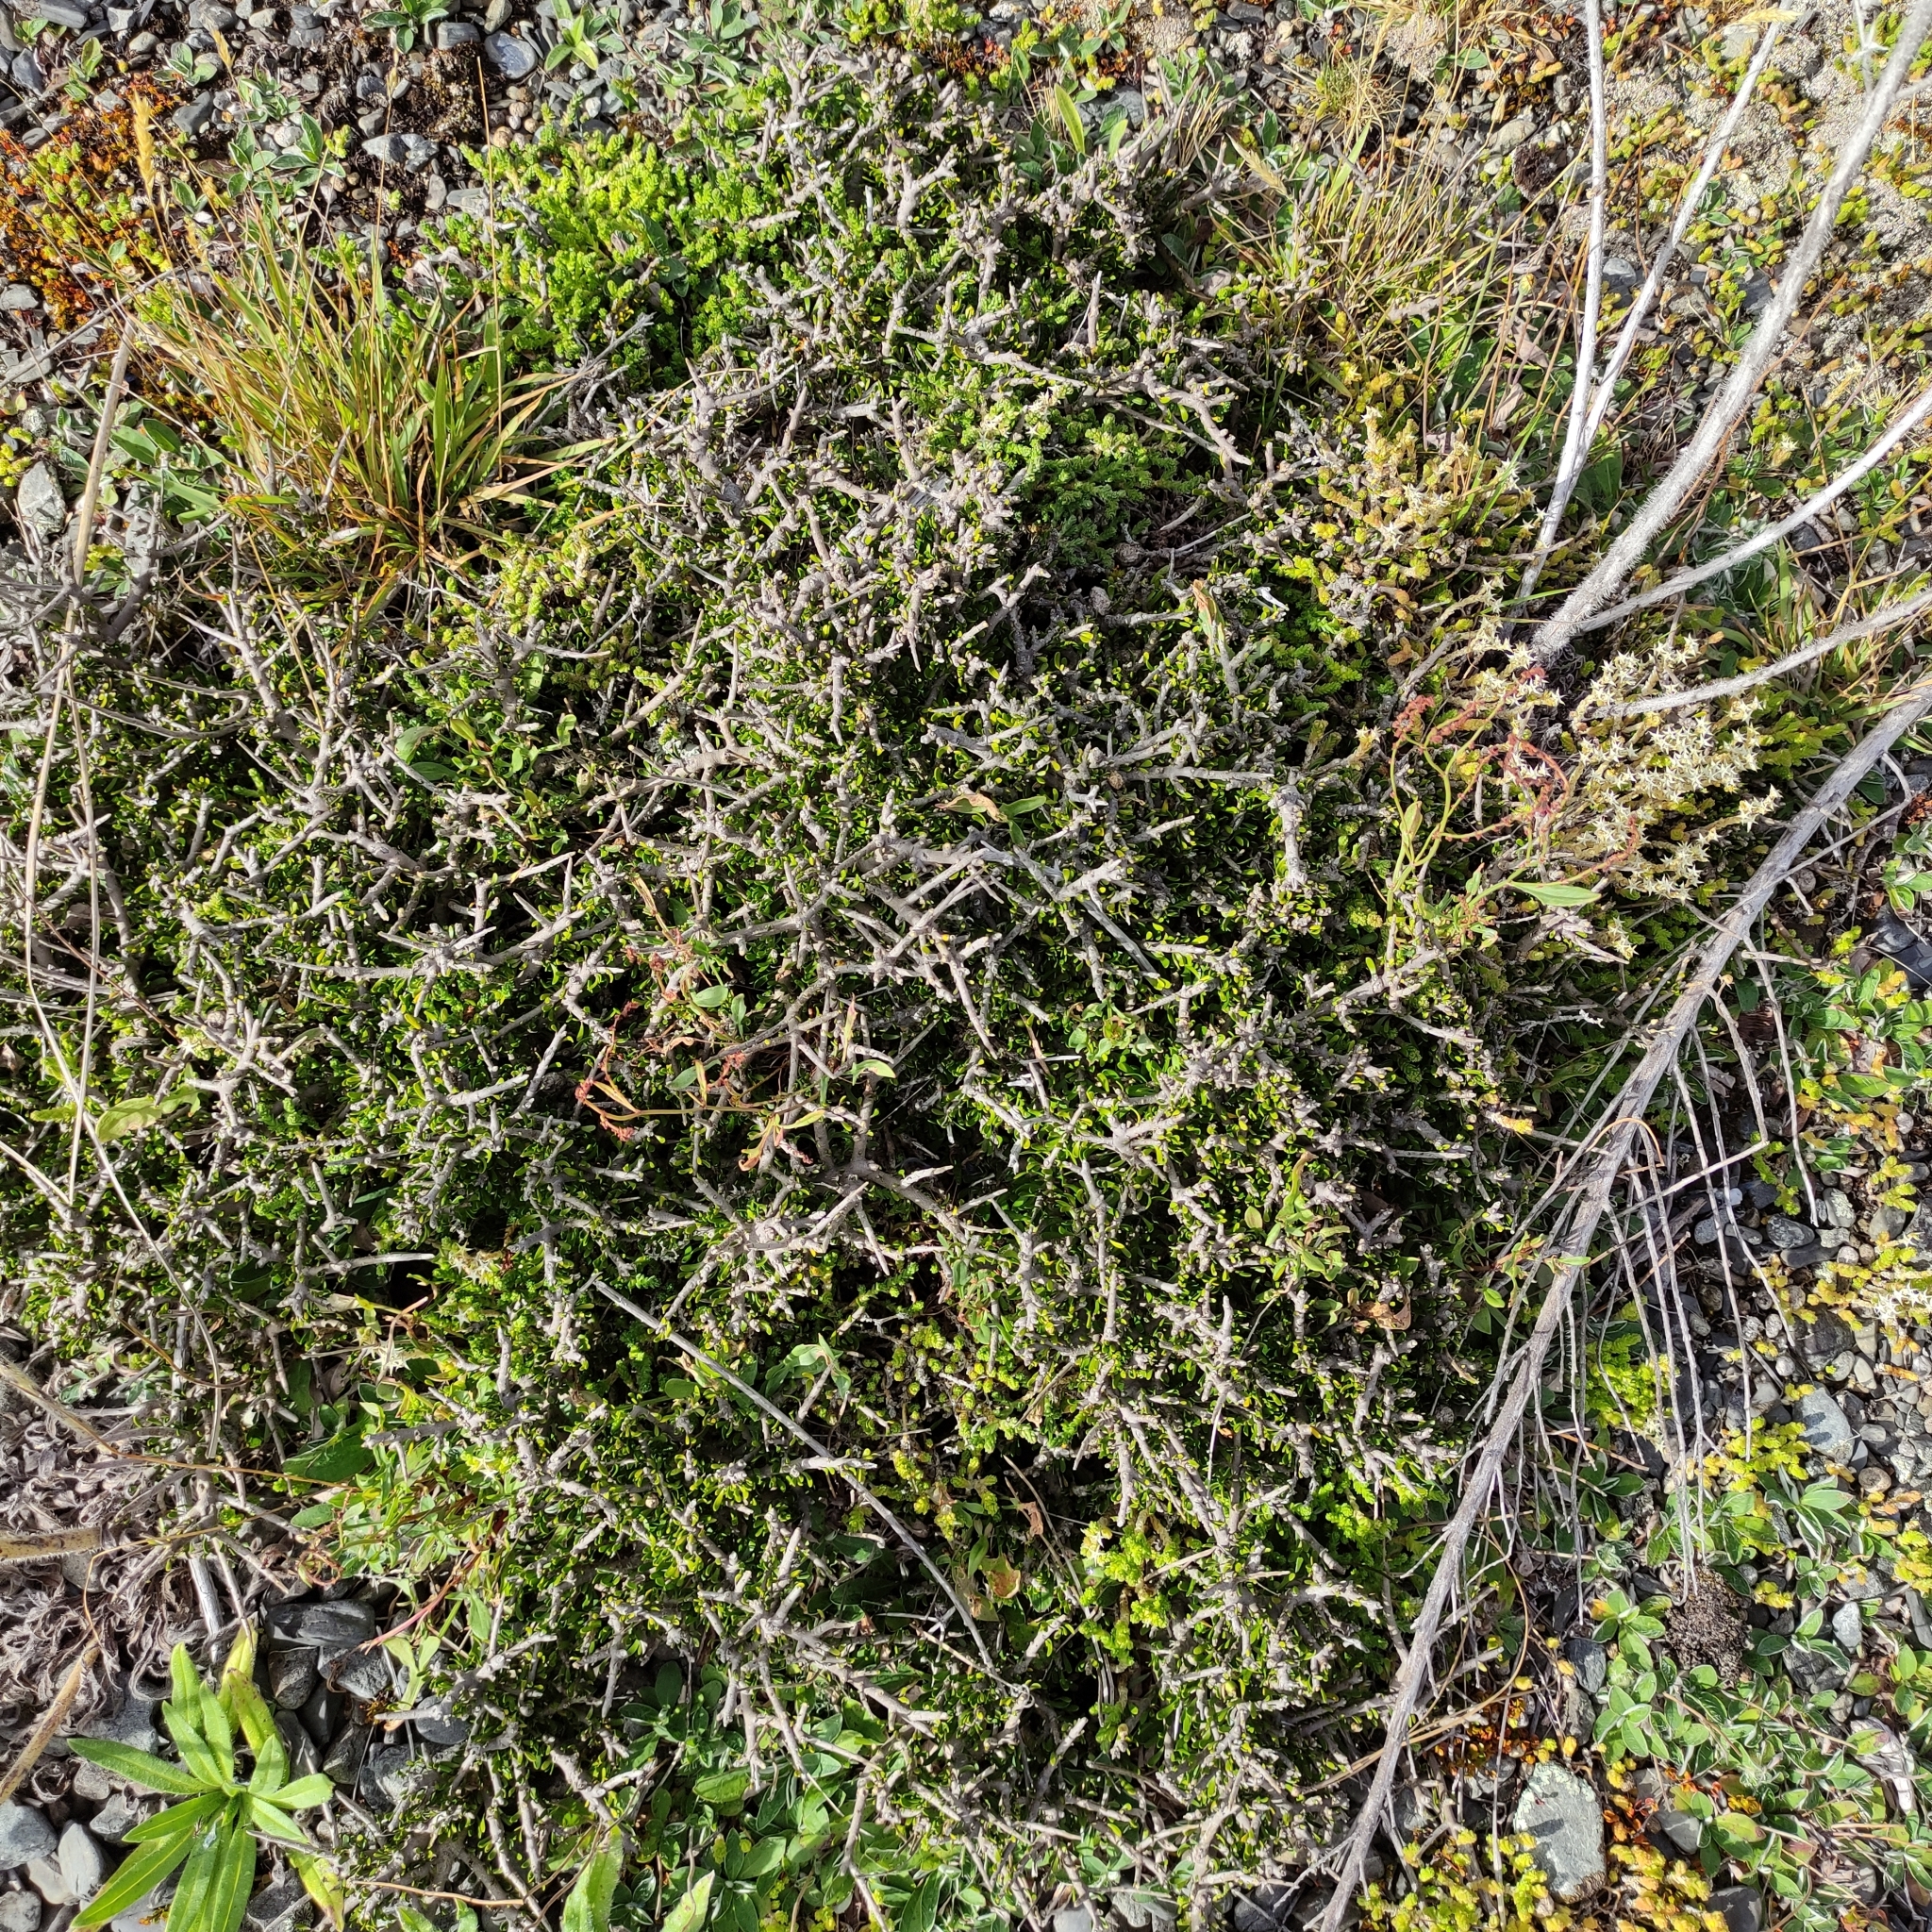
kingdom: Plantae
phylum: Tracheophyta
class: Magnoliopsida
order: Malpighiales
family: Violaceae
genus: Melicytus
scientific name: Melicytus alpinus
